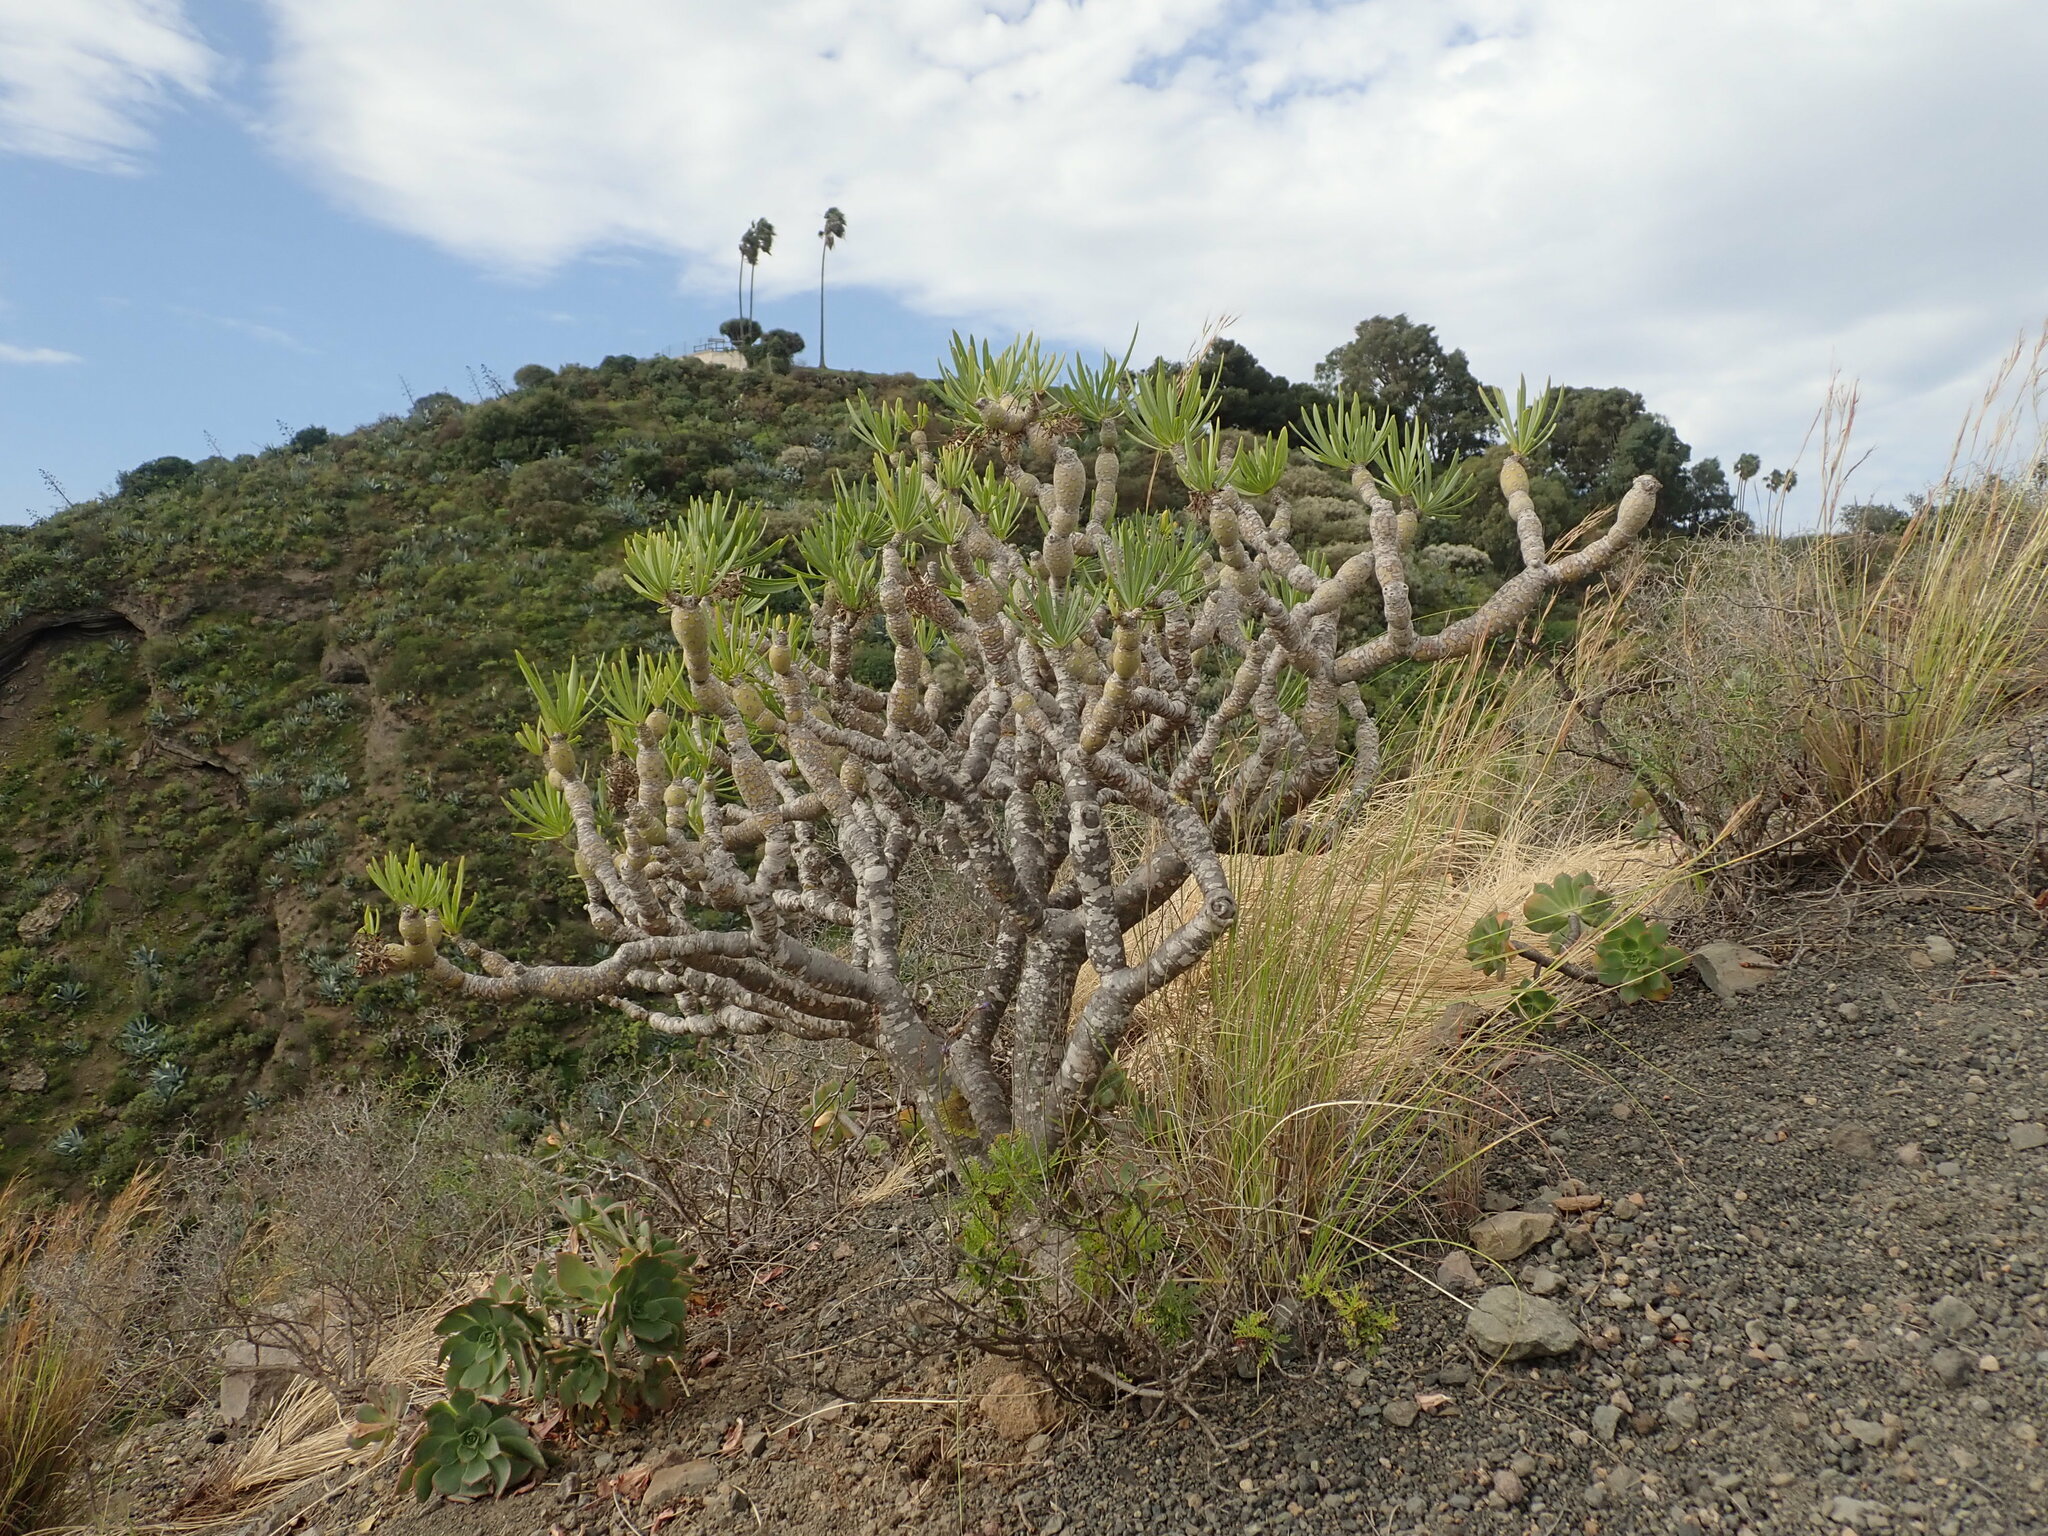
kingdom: Plantae
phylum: Tracheophyta
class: Magnoliopsida
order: Asterales
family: Asteraceae
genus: Kleinia
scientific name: Kleinia neriifolia
